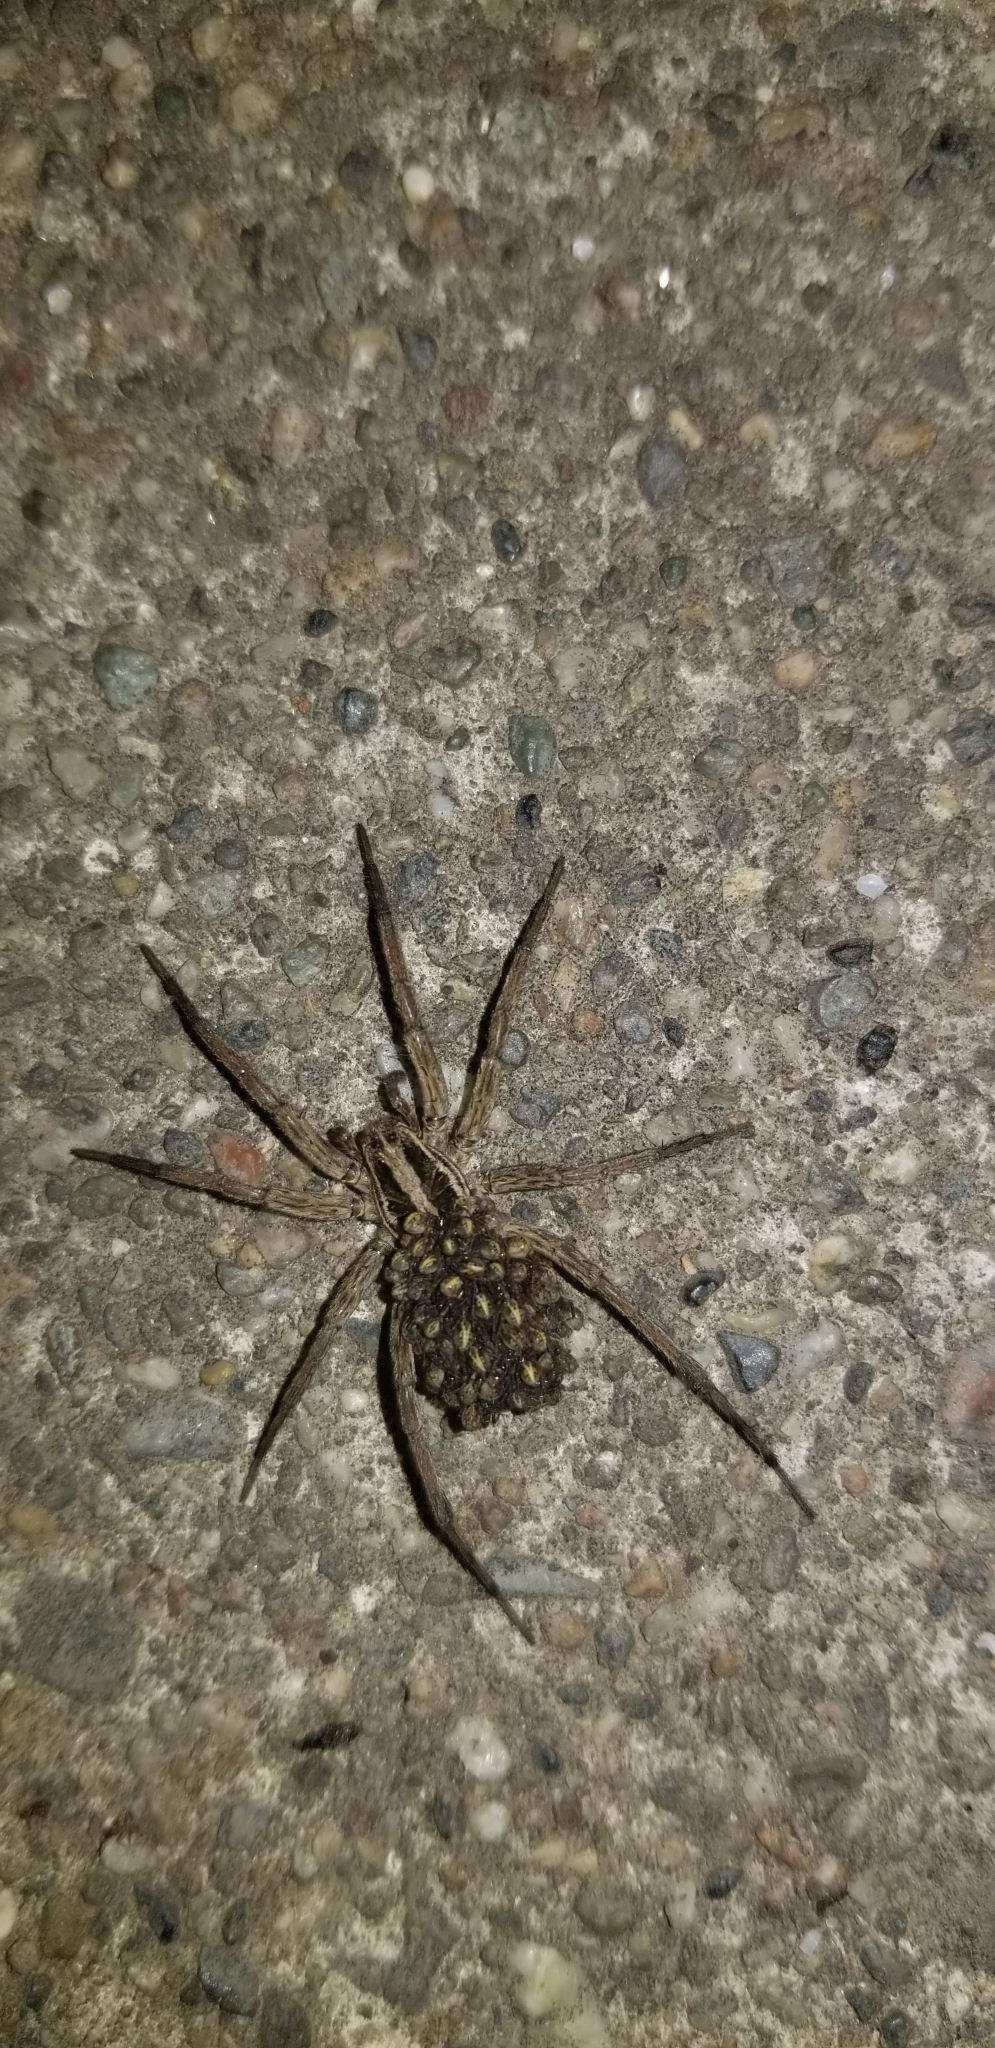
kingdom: Animalia
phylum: Arthropoda
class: Arachnida
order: Araneae
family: Lycosidae
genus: Alopecosa
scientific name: Alopecosa kochi
